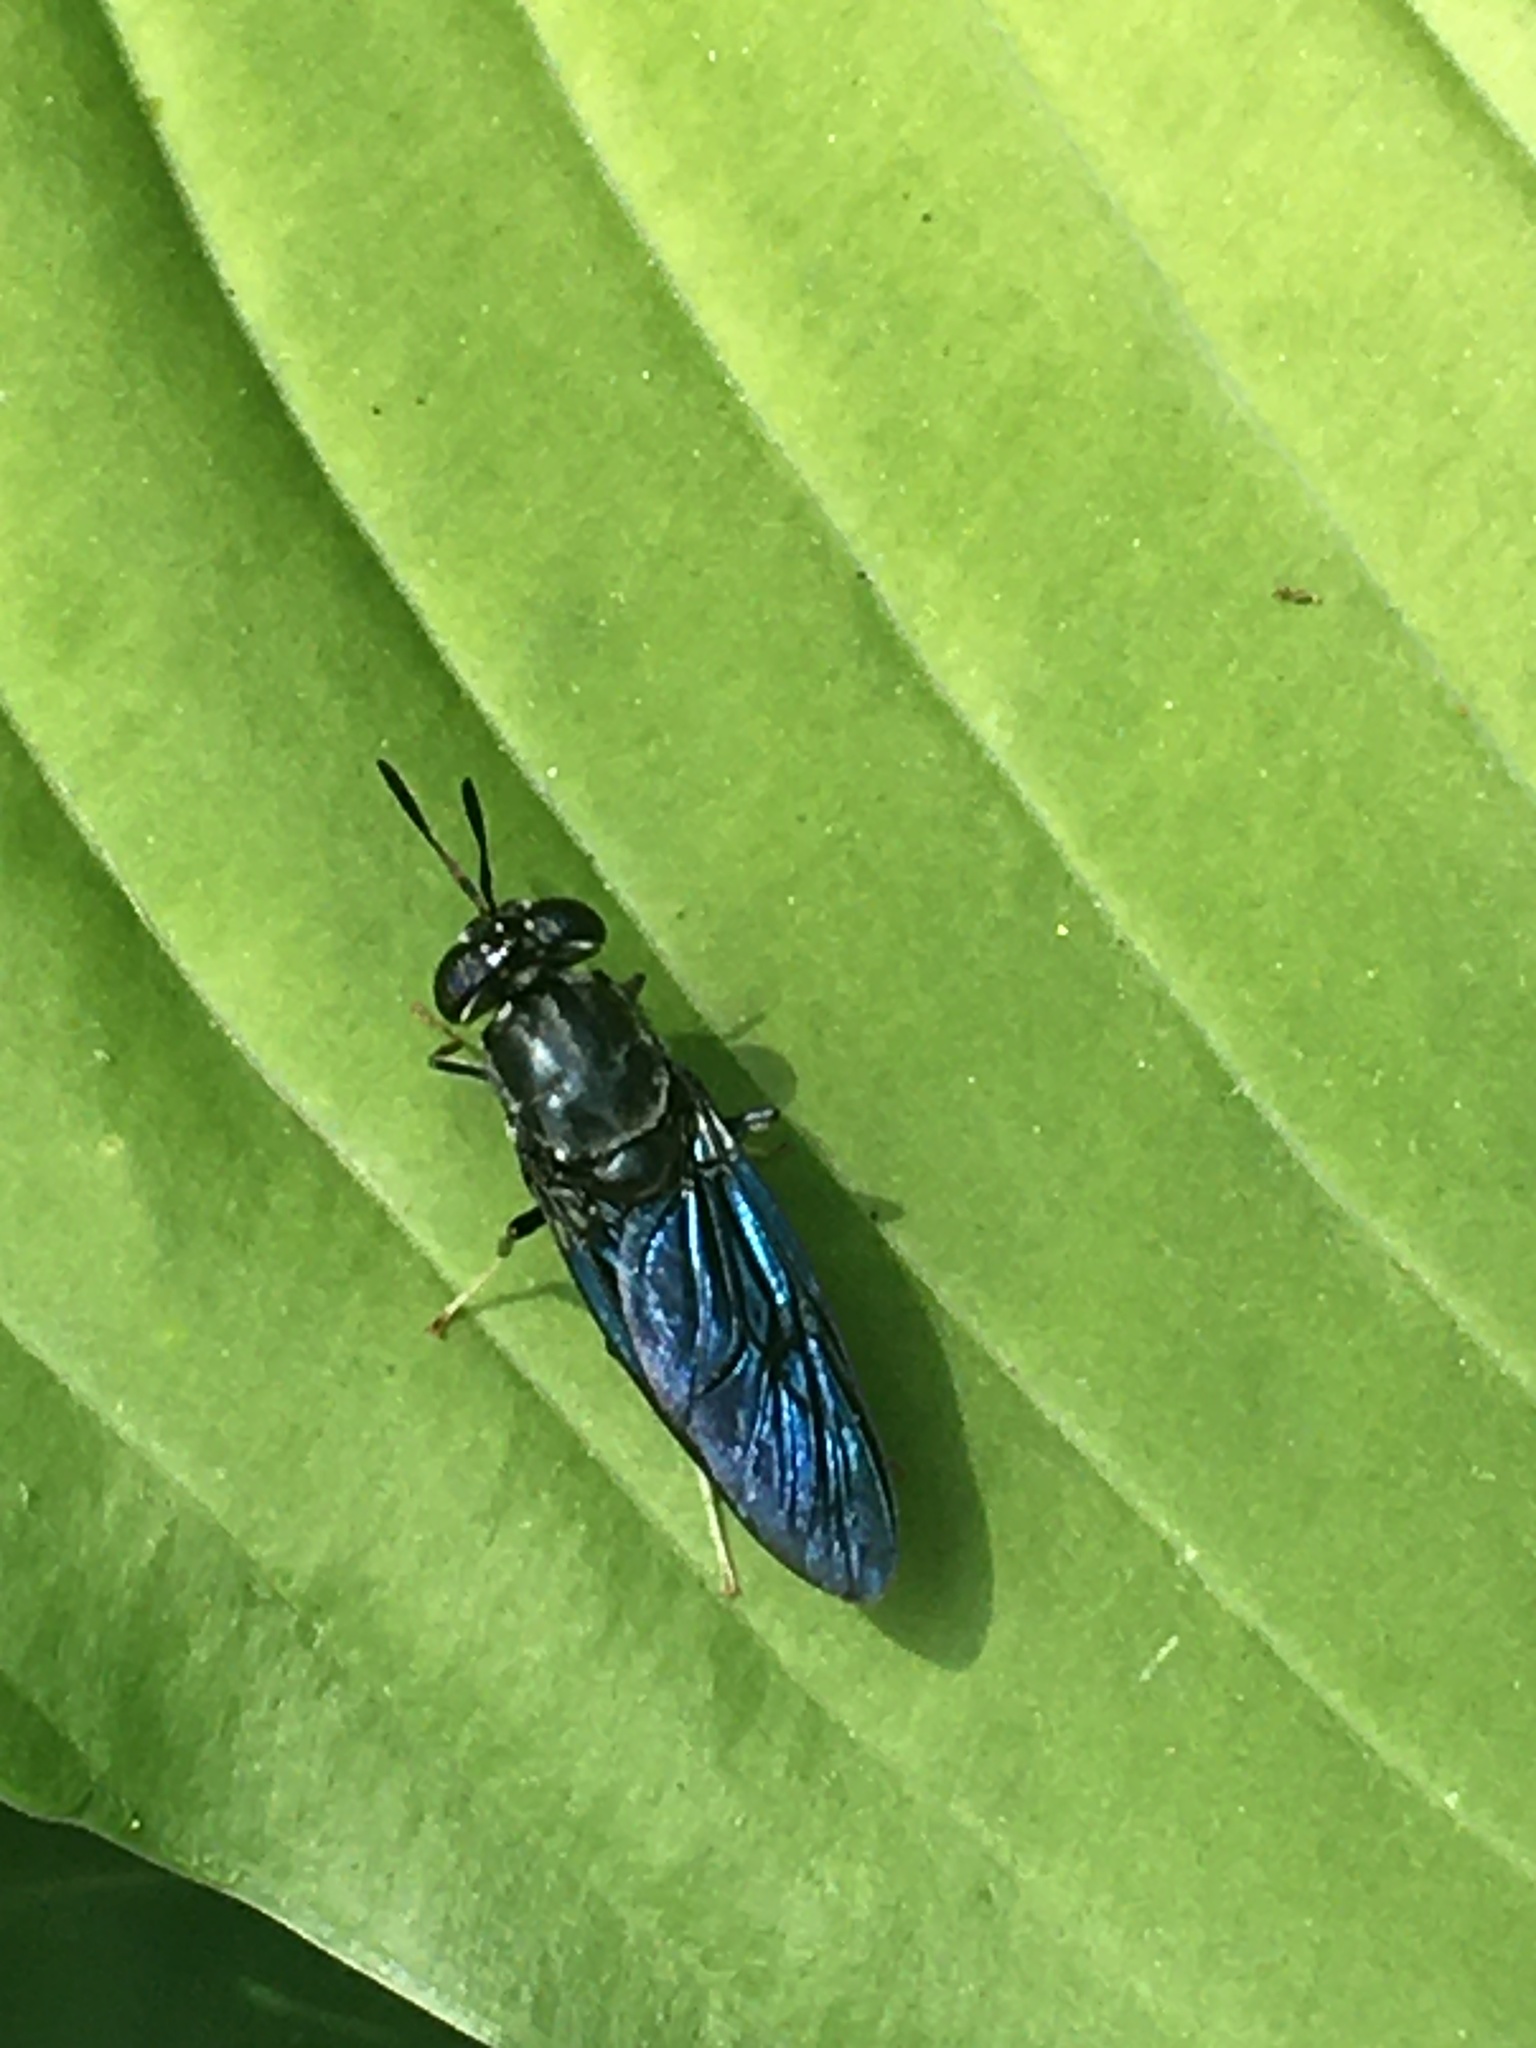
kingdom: Animalia
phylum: Arthropoda
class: Insecta
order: Diptera
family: Stratiomyidae
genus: Hermetia
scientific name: Hermetia illucens
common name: Black soldier fly
